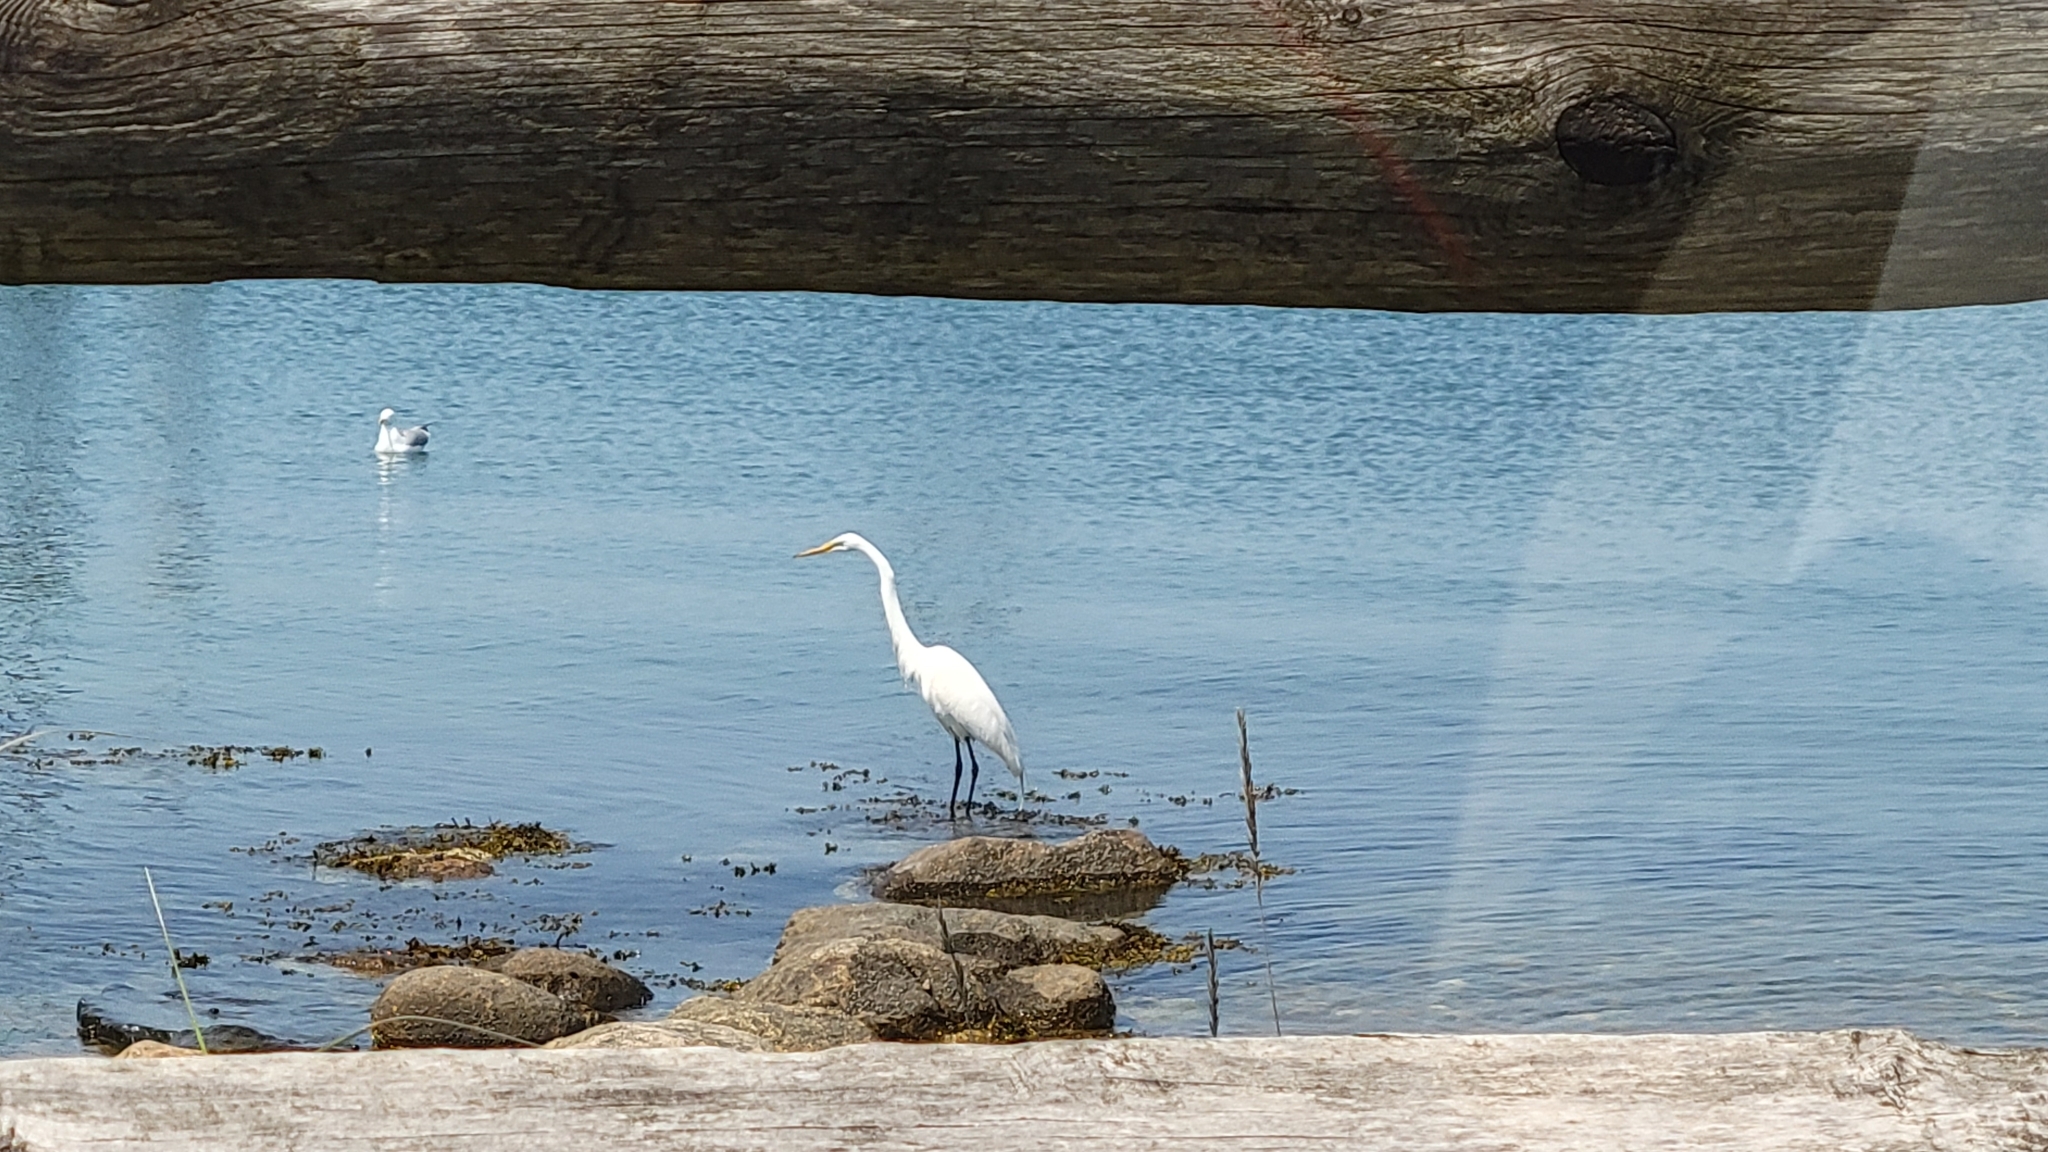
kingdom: Animalia
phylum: Chordata
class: Aves
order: Pelecaniformes
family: Ardeidae
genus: Ardea
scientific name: Ardea alba
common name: Great egret
